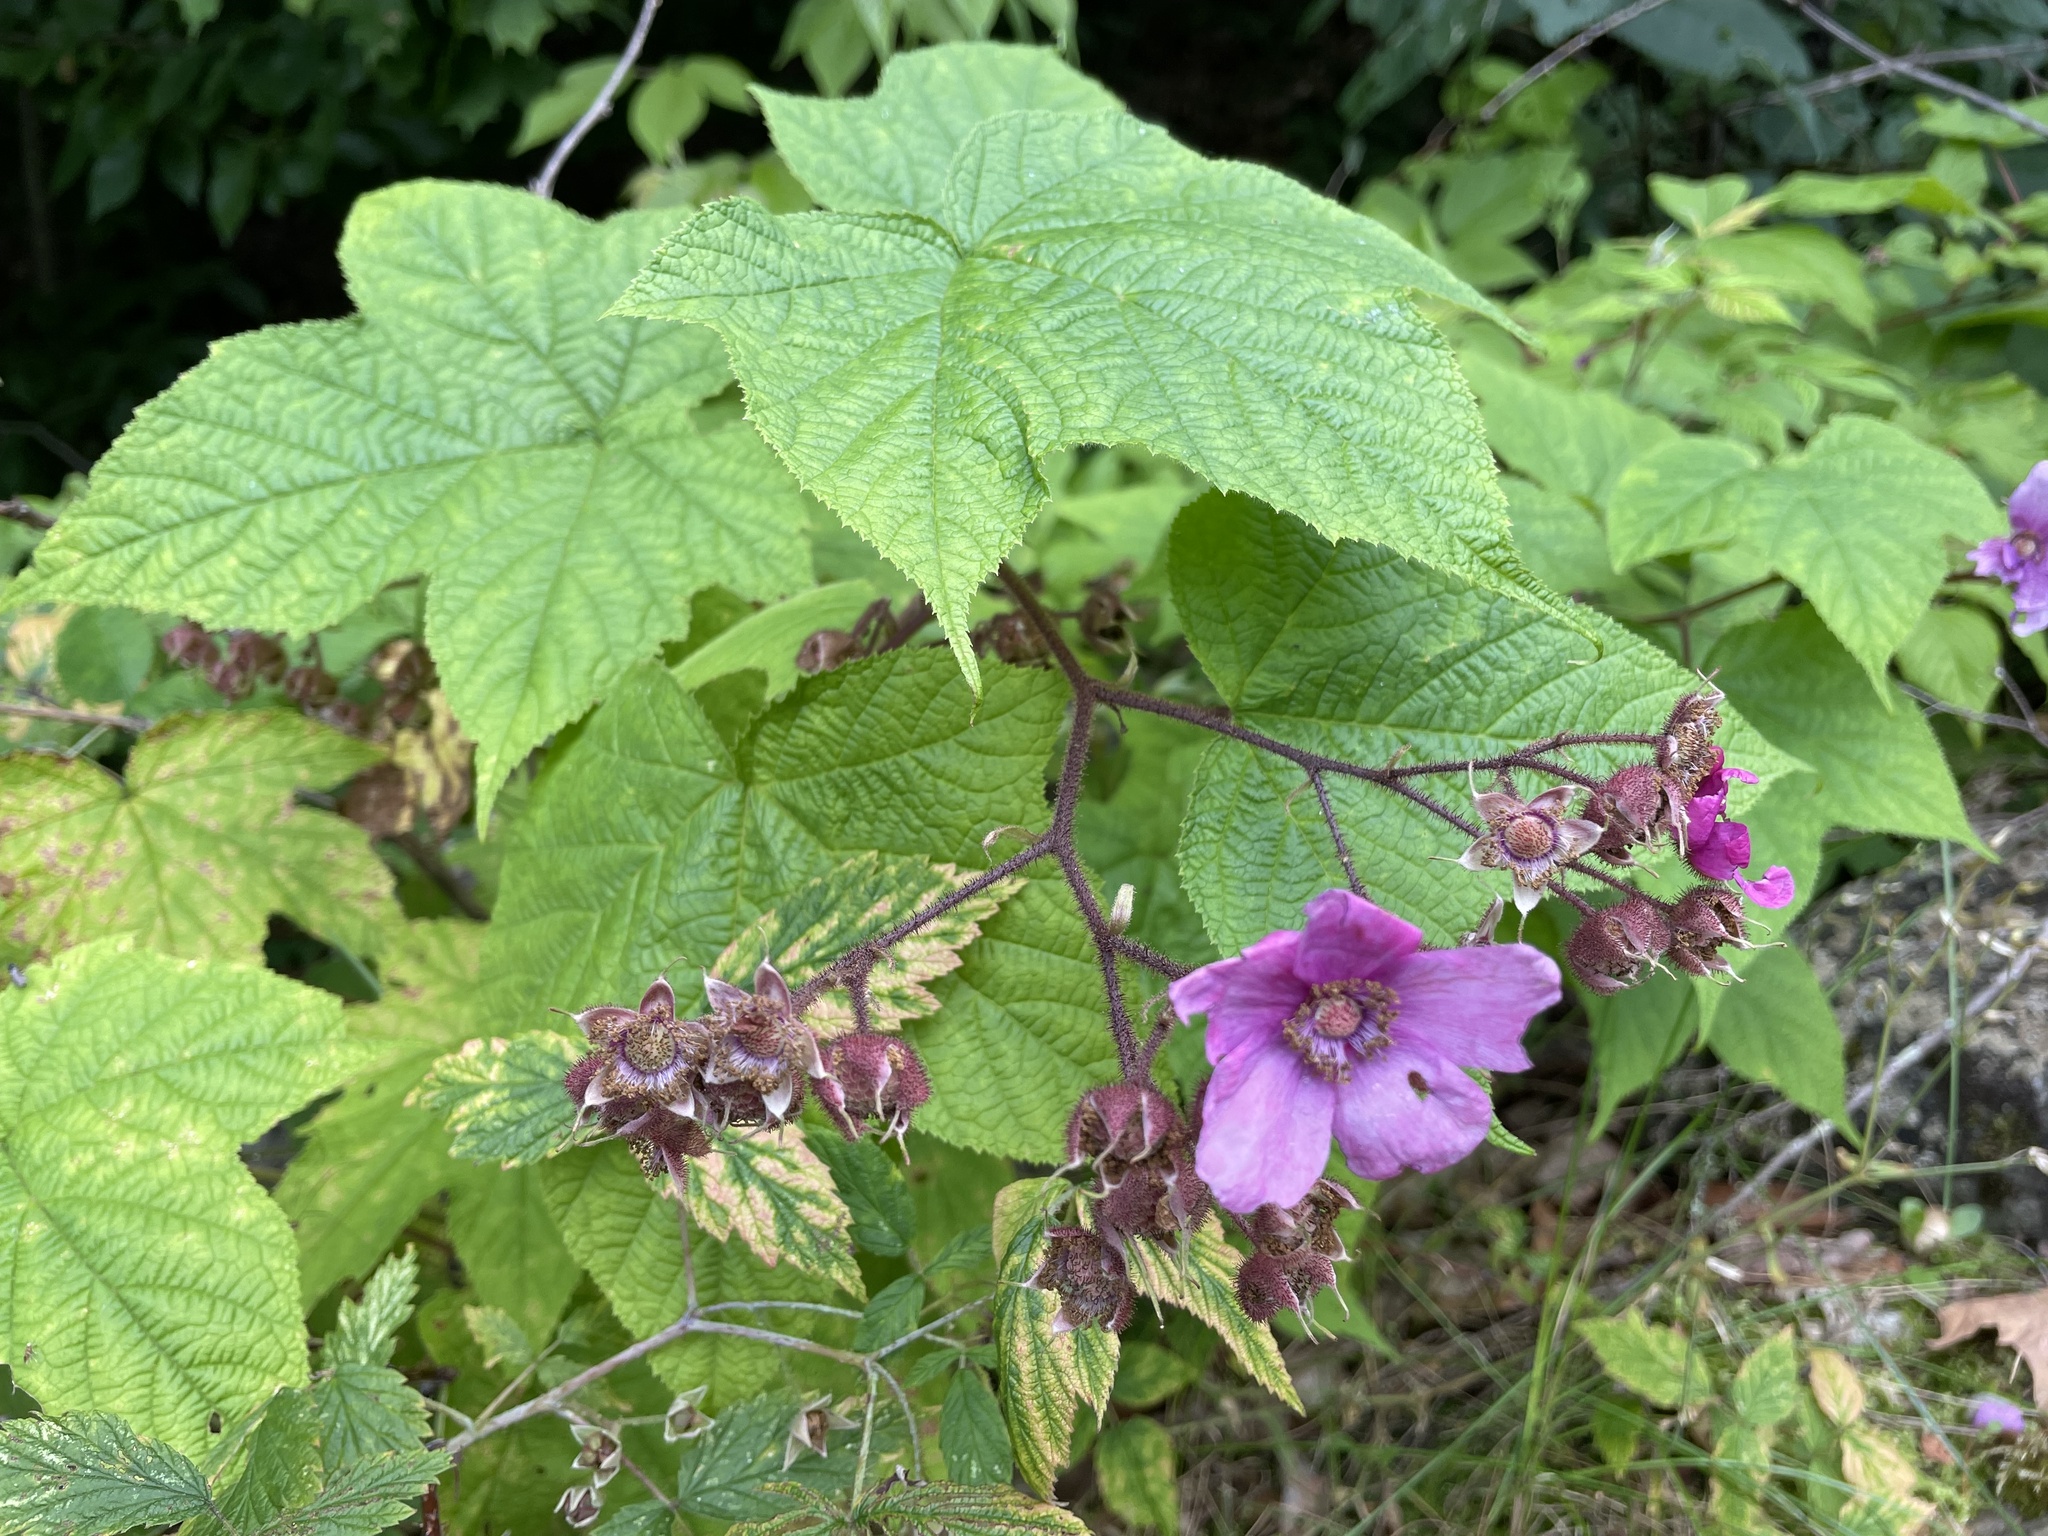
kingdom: Plantae
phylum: Tracheophyta
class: Magnoliopsida
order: Rosales
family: Rosaceae
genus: Rubus
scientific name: Rubus odoratus
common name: Purple-flowered raspberry
